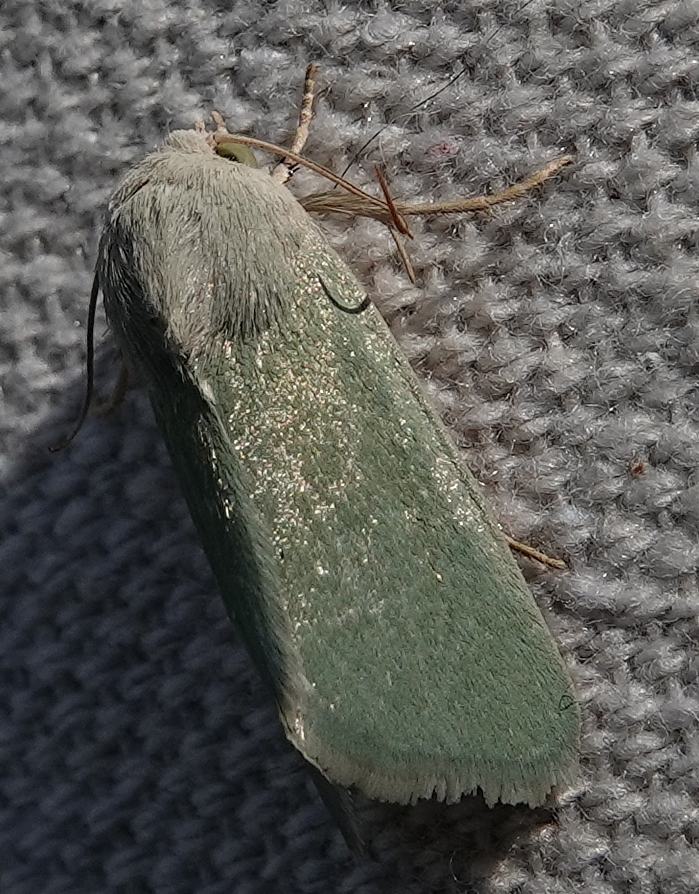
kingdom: Animalia
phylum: Arthropoda
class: Insecta
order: Lepidoptera
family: Noctuidae
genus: Schinia
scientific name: Schinia simplex
